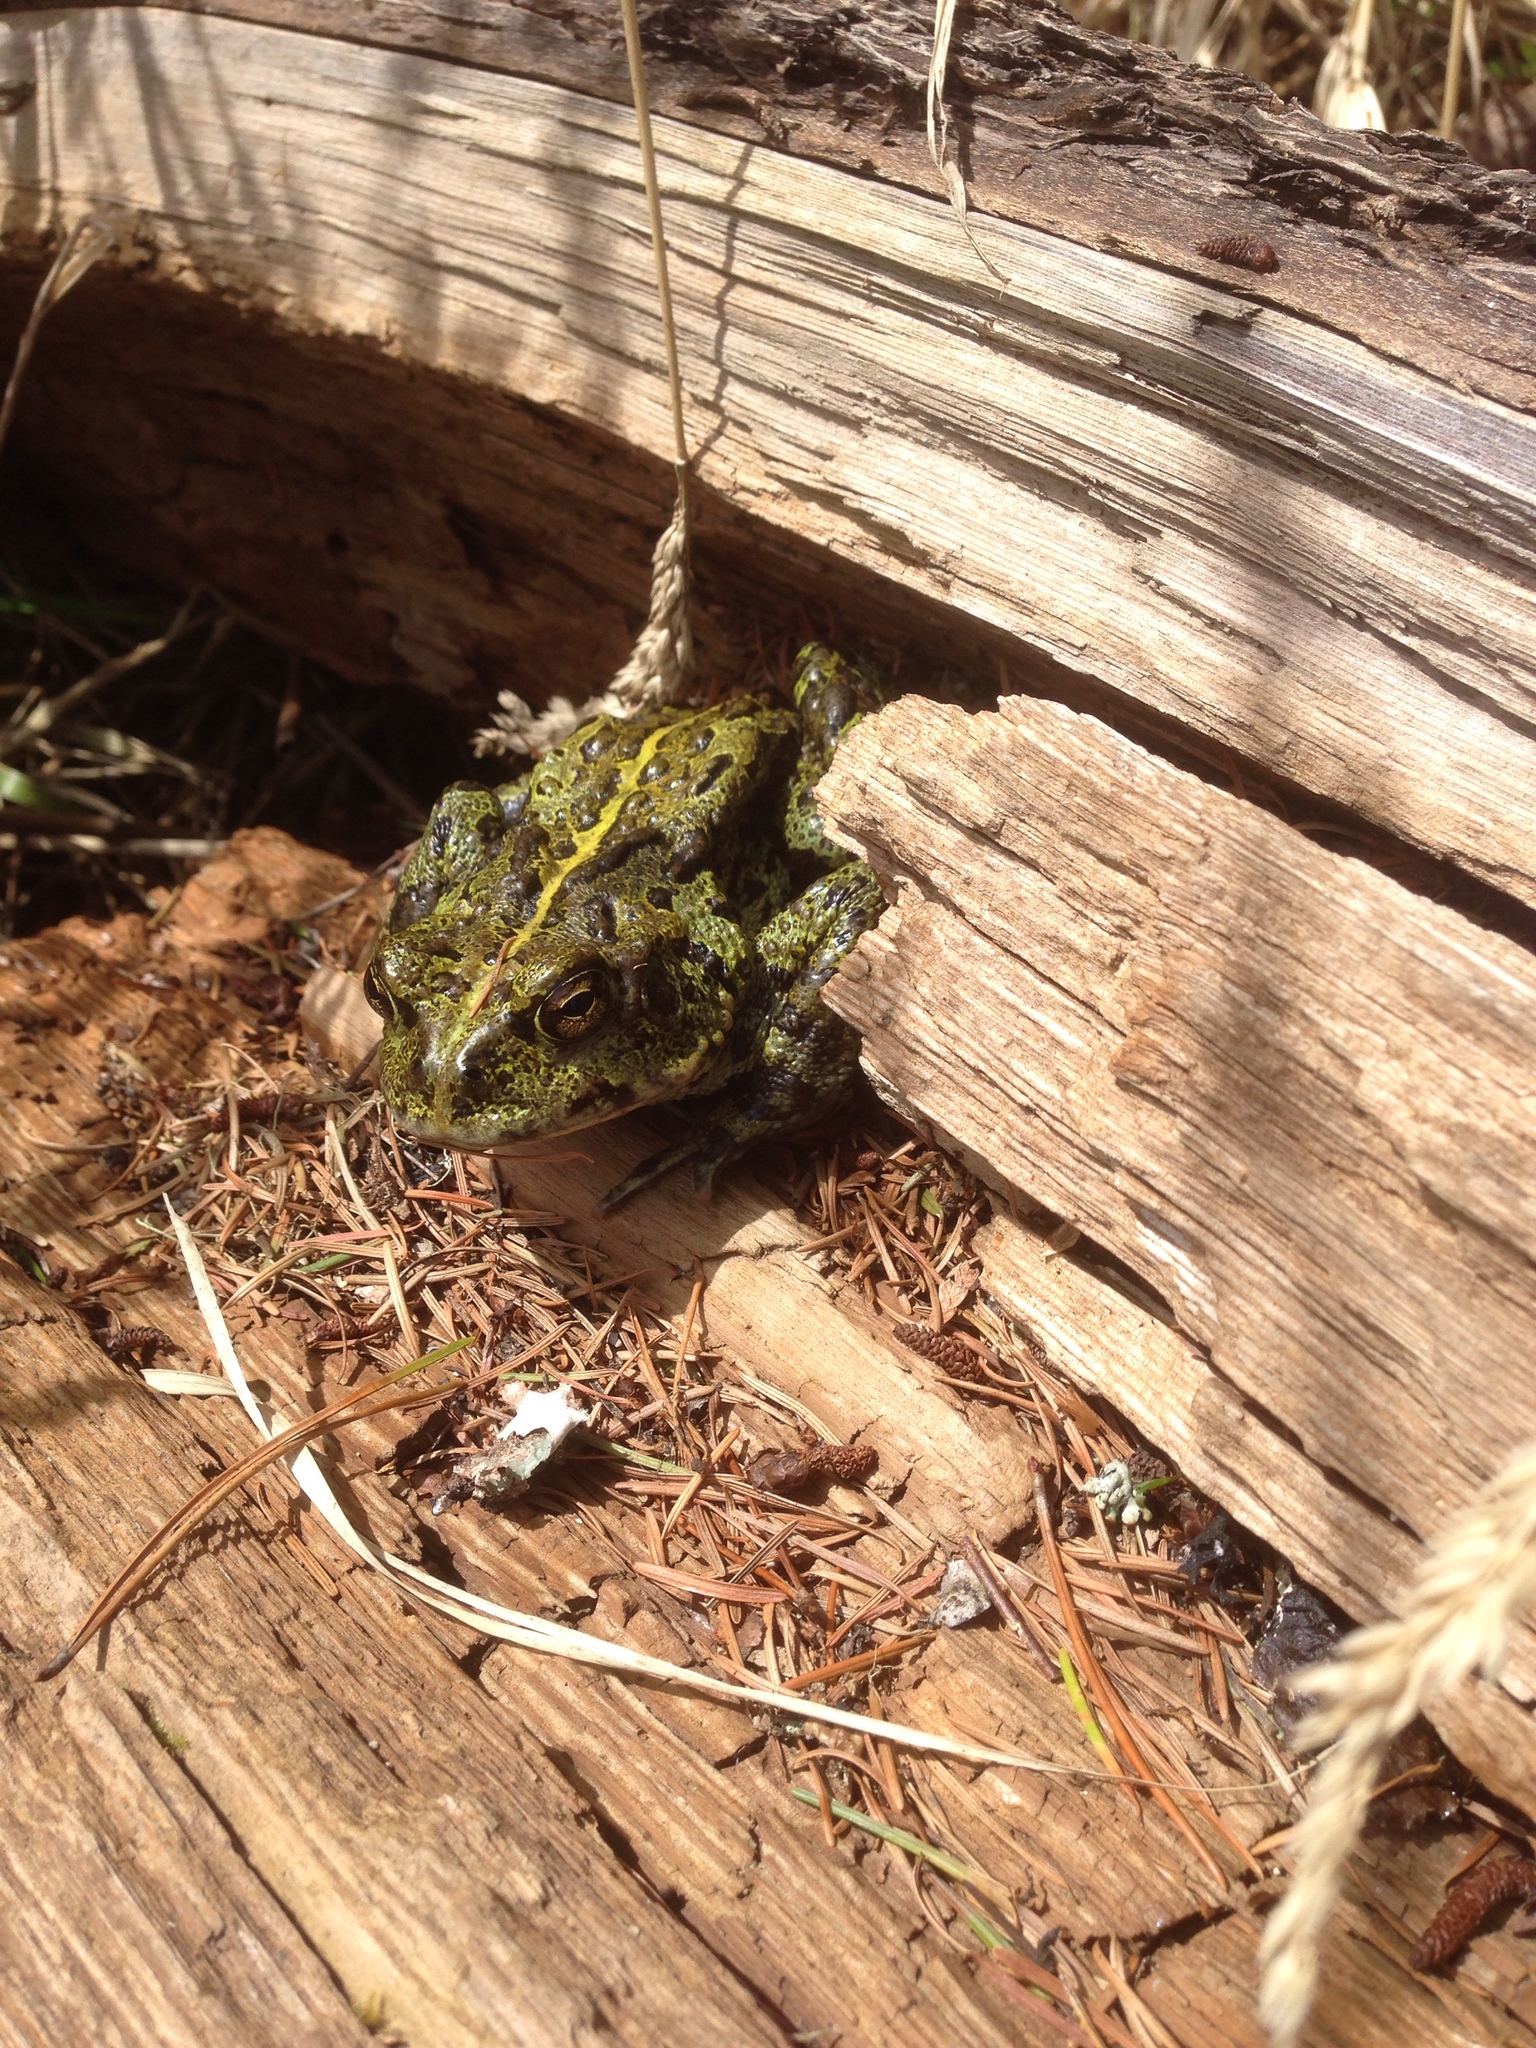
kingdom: Animalia
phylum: Chordata
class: Amphibia
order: Anura
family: Bufonidae
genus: Anaxyrus
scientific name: Anaxyrus boreas
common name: Western toad
